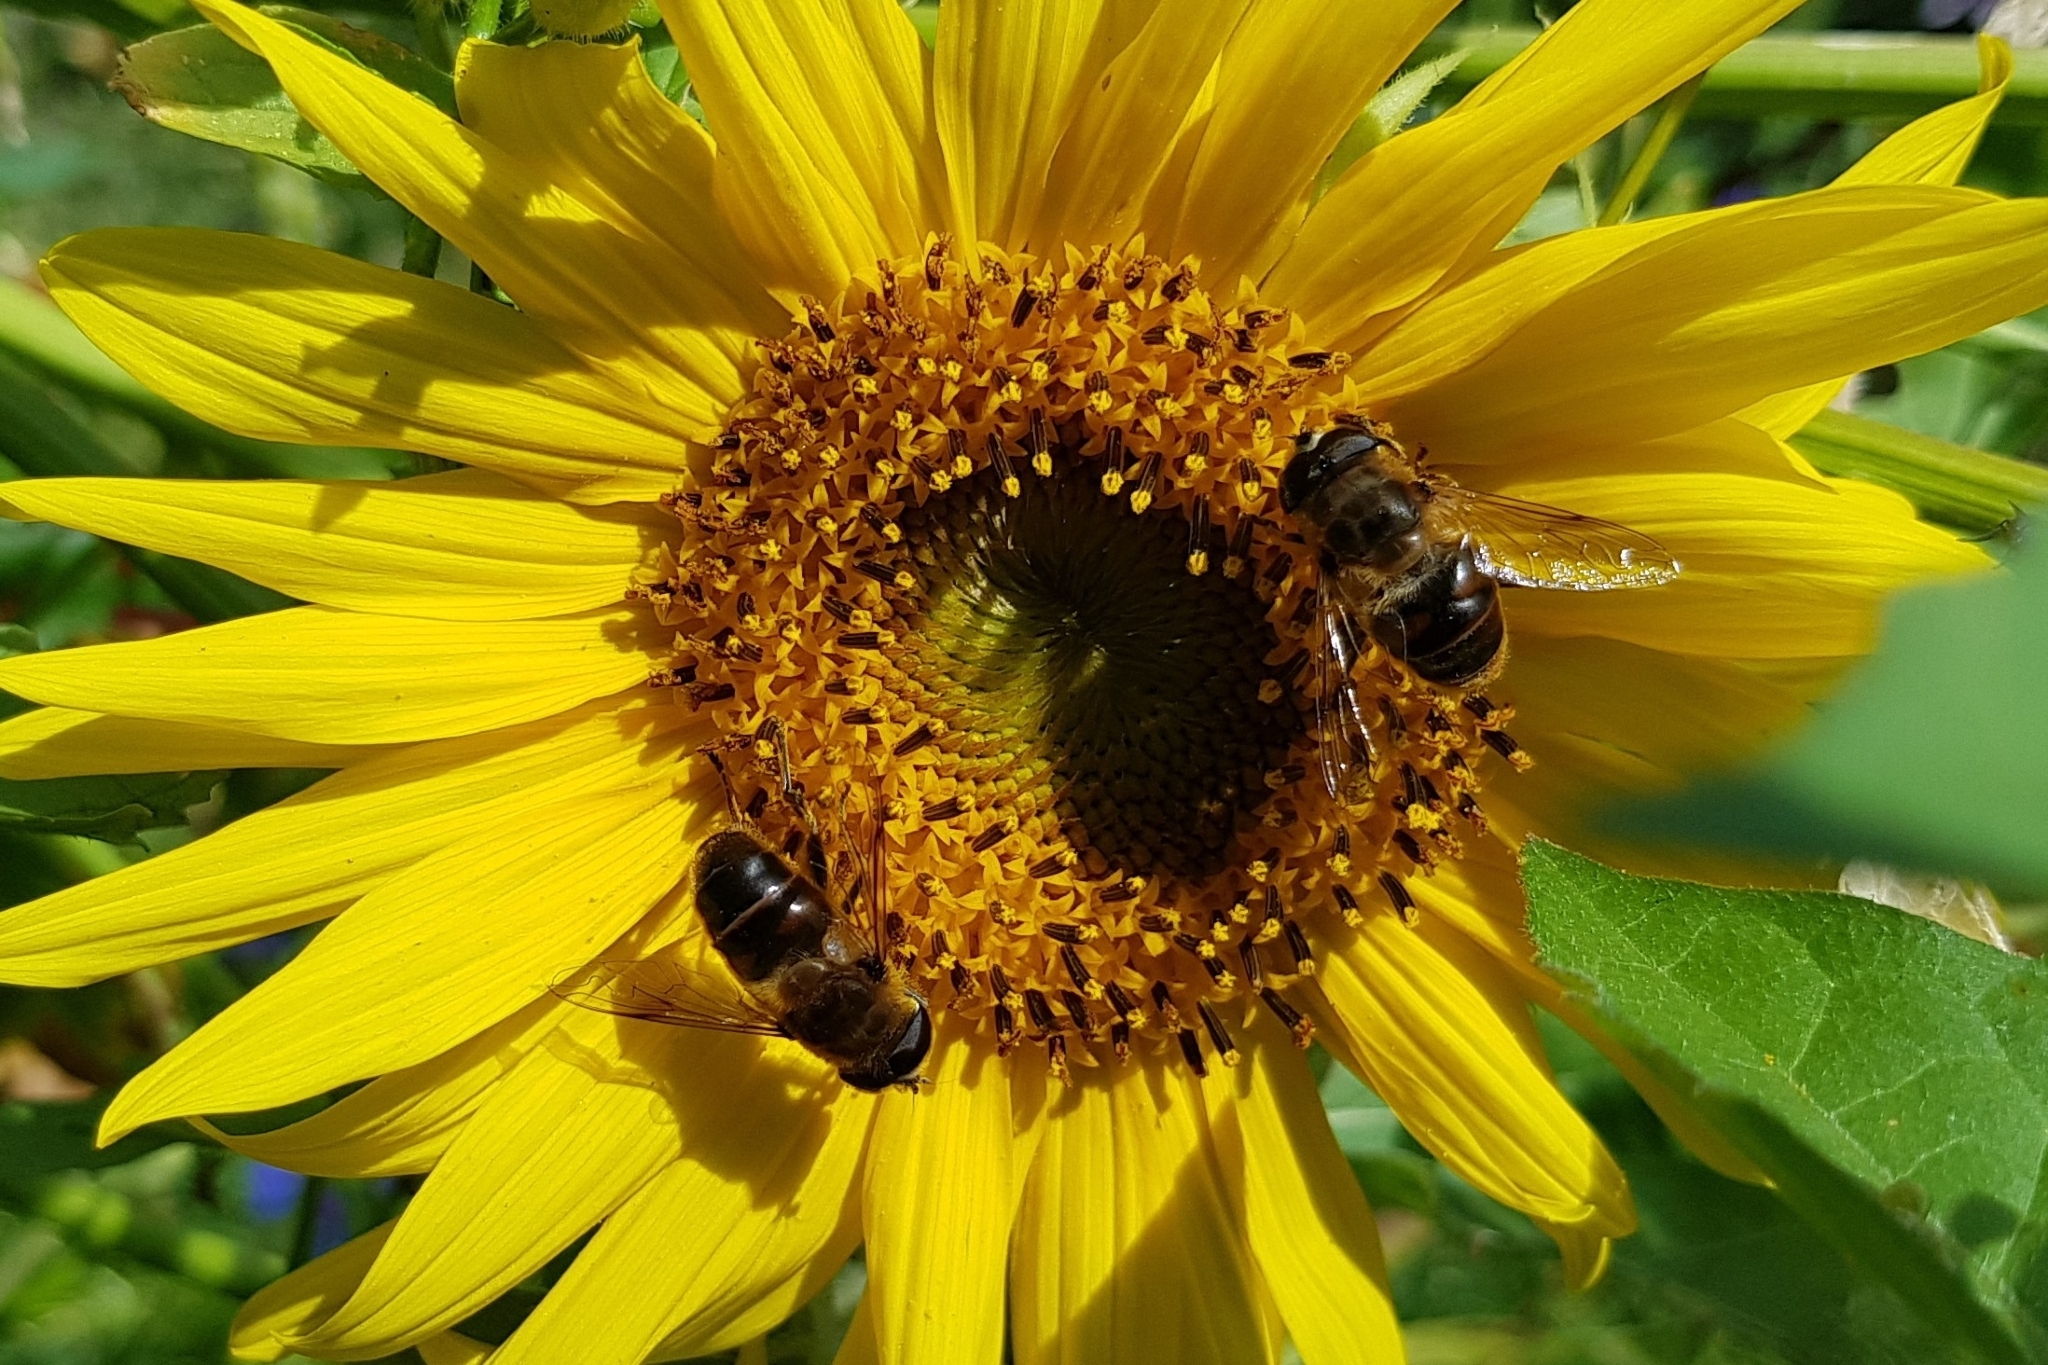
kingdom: Animalia
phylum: Arthropoda
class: Insecta
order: Diptera
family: Syrphidae
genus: Eristalis
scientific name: Eristalis tenax
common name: Drone fly
